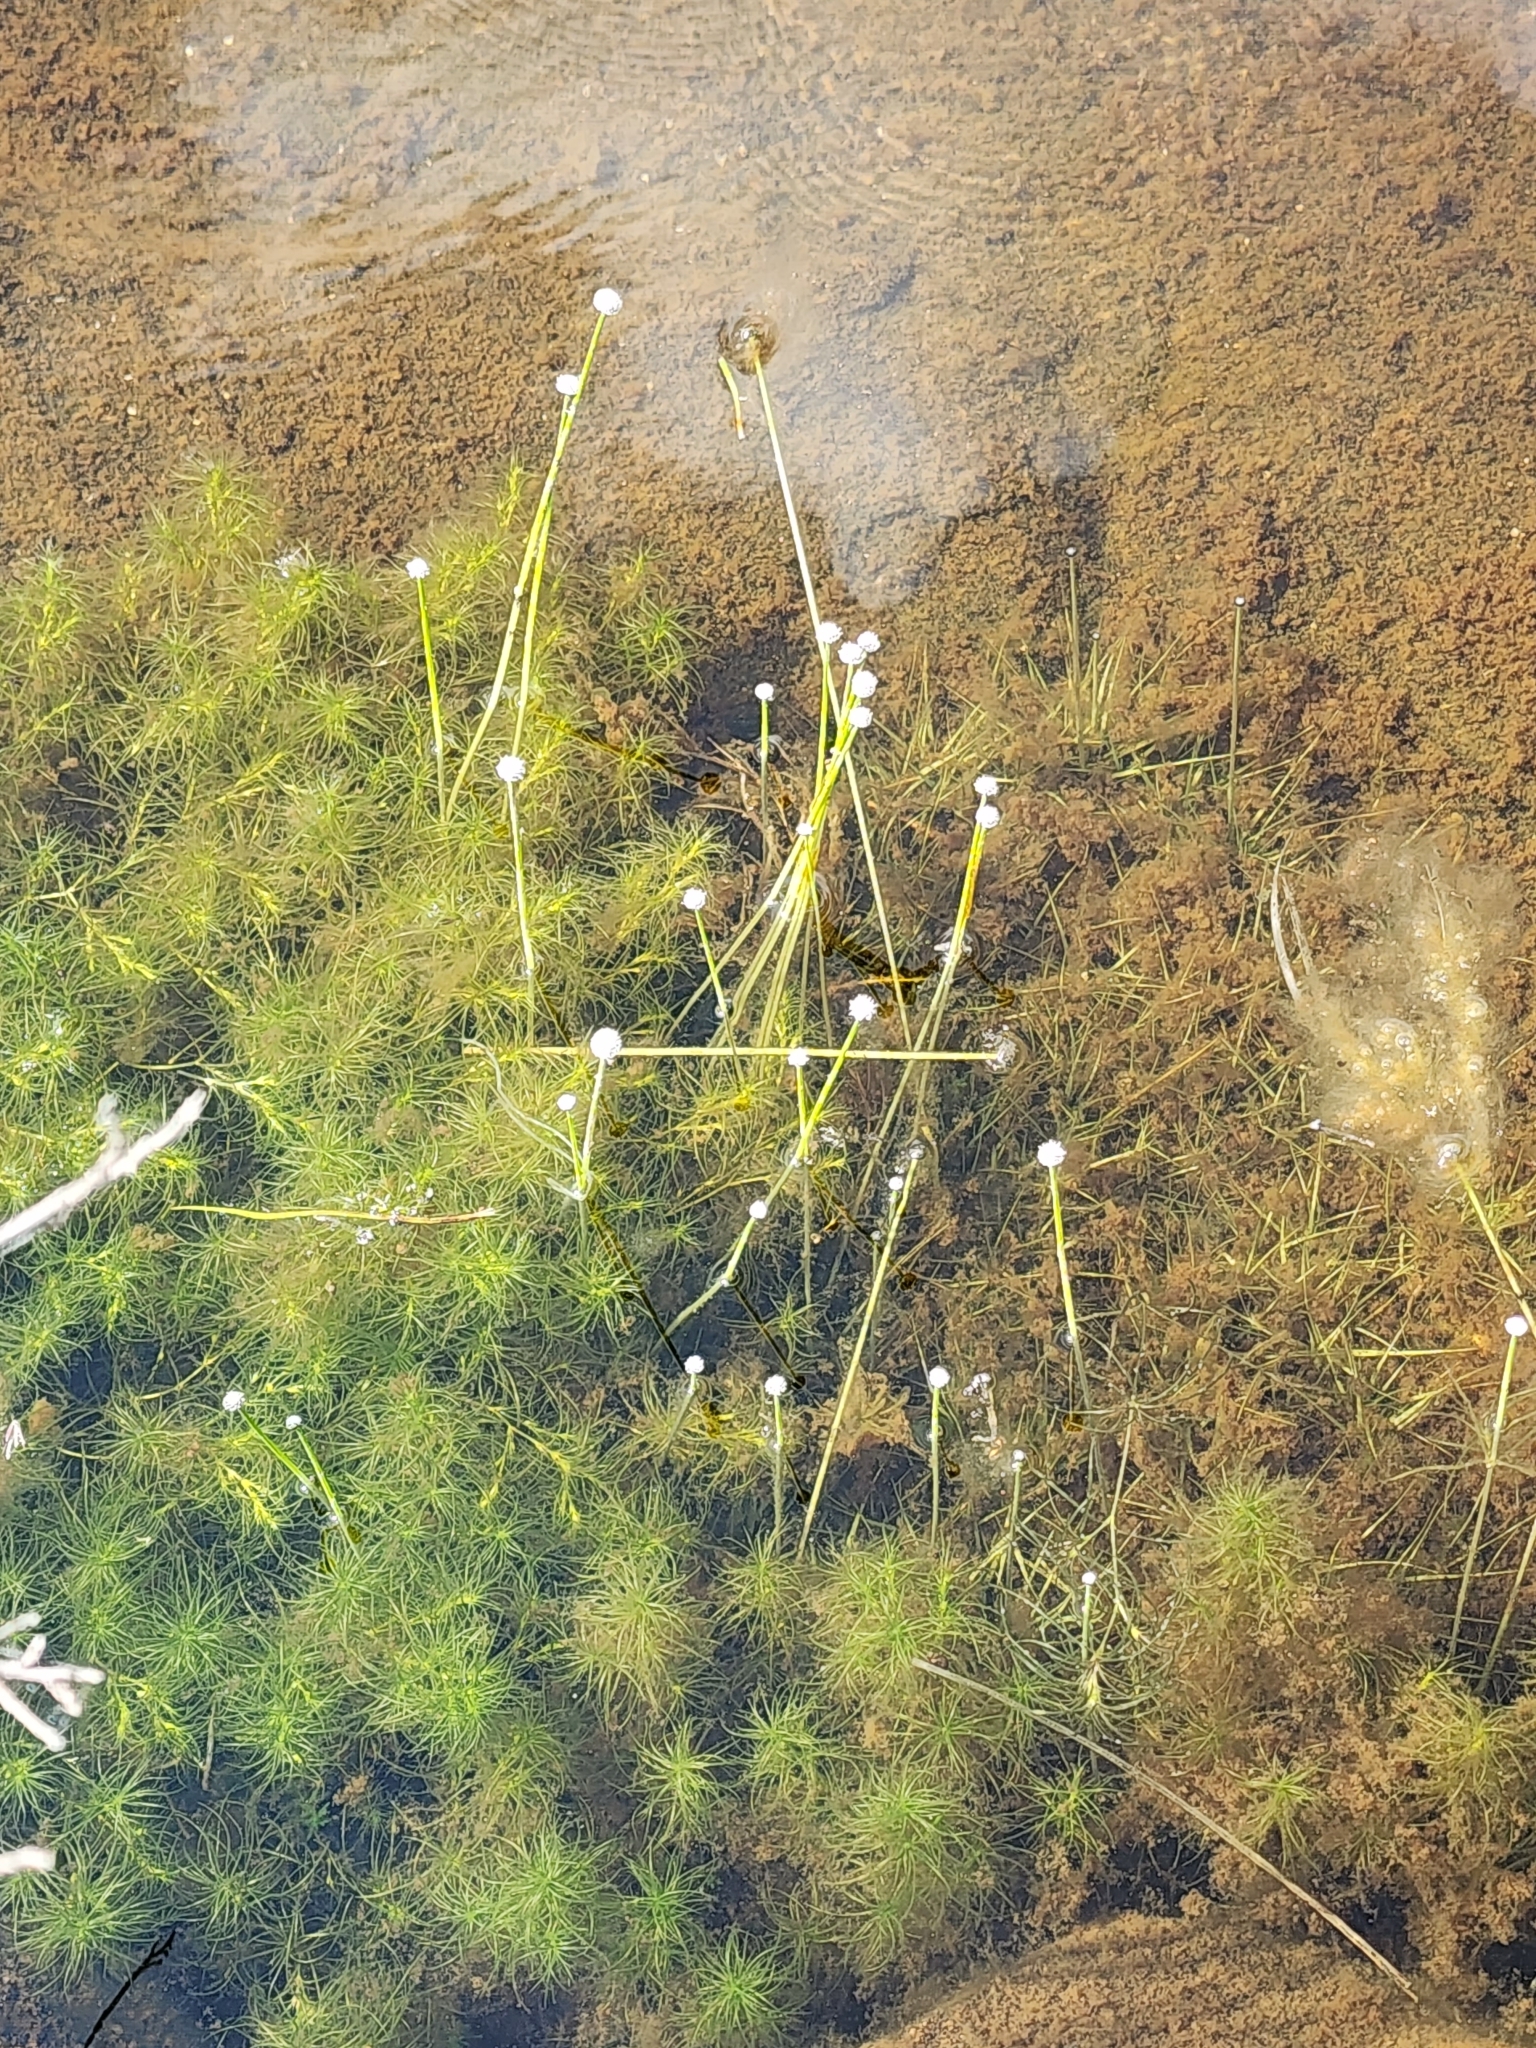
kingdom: Plantae
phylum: Tracheophyta
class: Liliopsida
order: Poales
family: Eriocaulaceae
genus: Eriocaulon
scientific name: Eriocaulon aquaticum
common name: Pipewort
